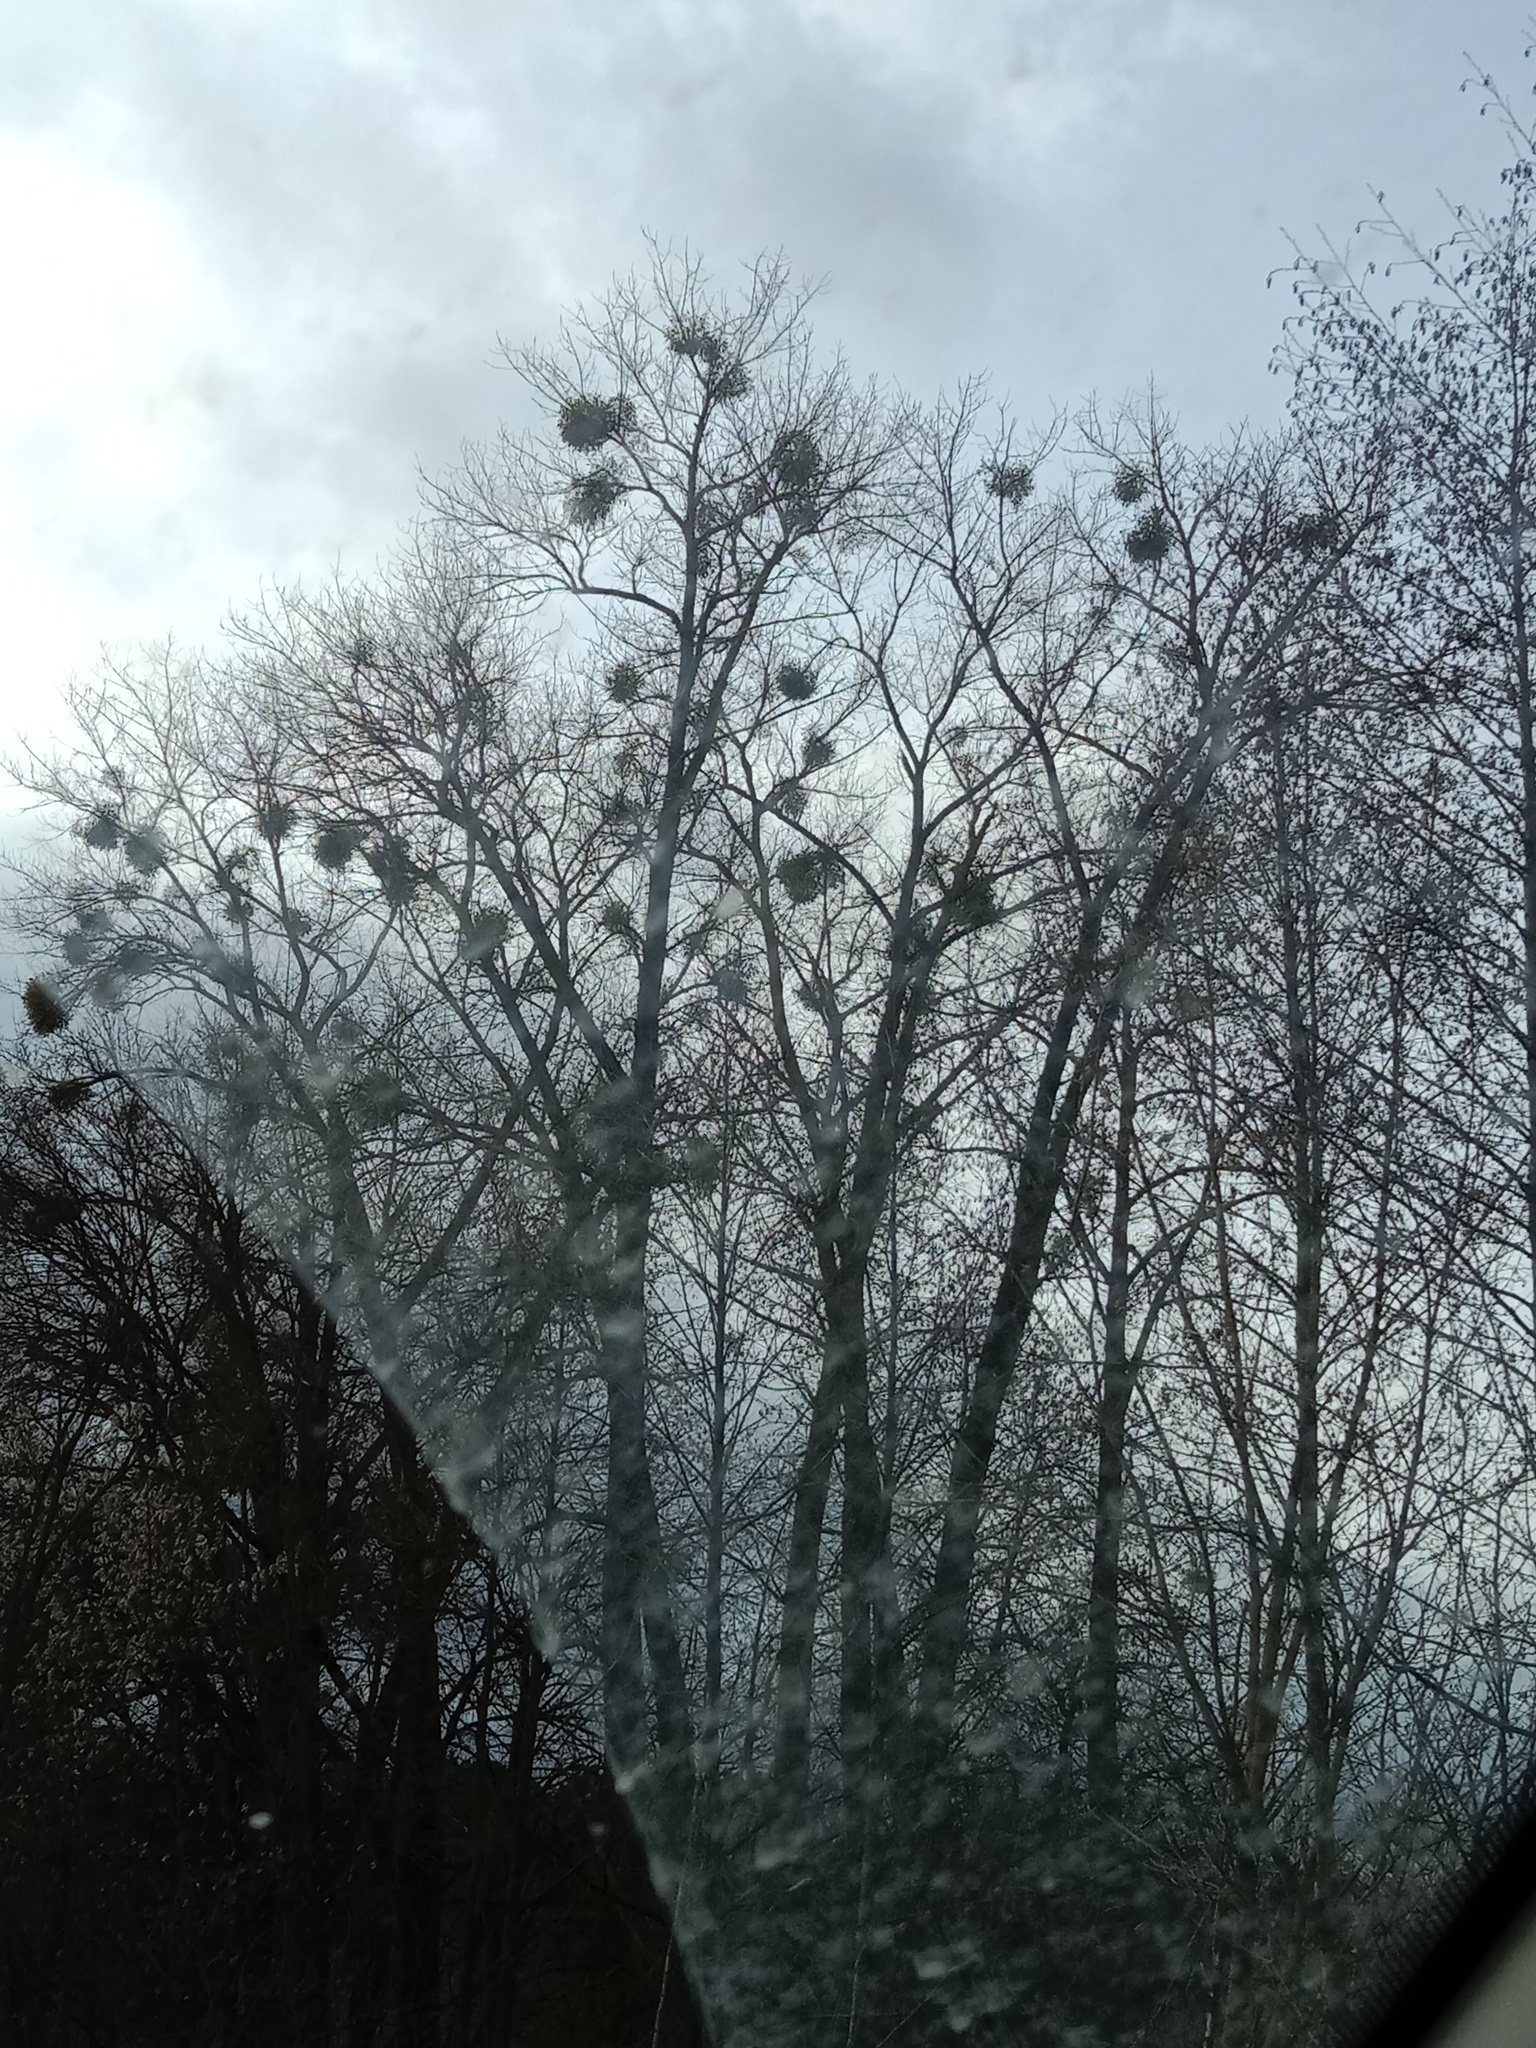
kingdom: Plantae
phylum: Tracheophyta
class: Magnoliopsida
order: Santalales
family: Viscaceae
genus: Viscum
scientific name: Viscum album
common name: Mistletoe
